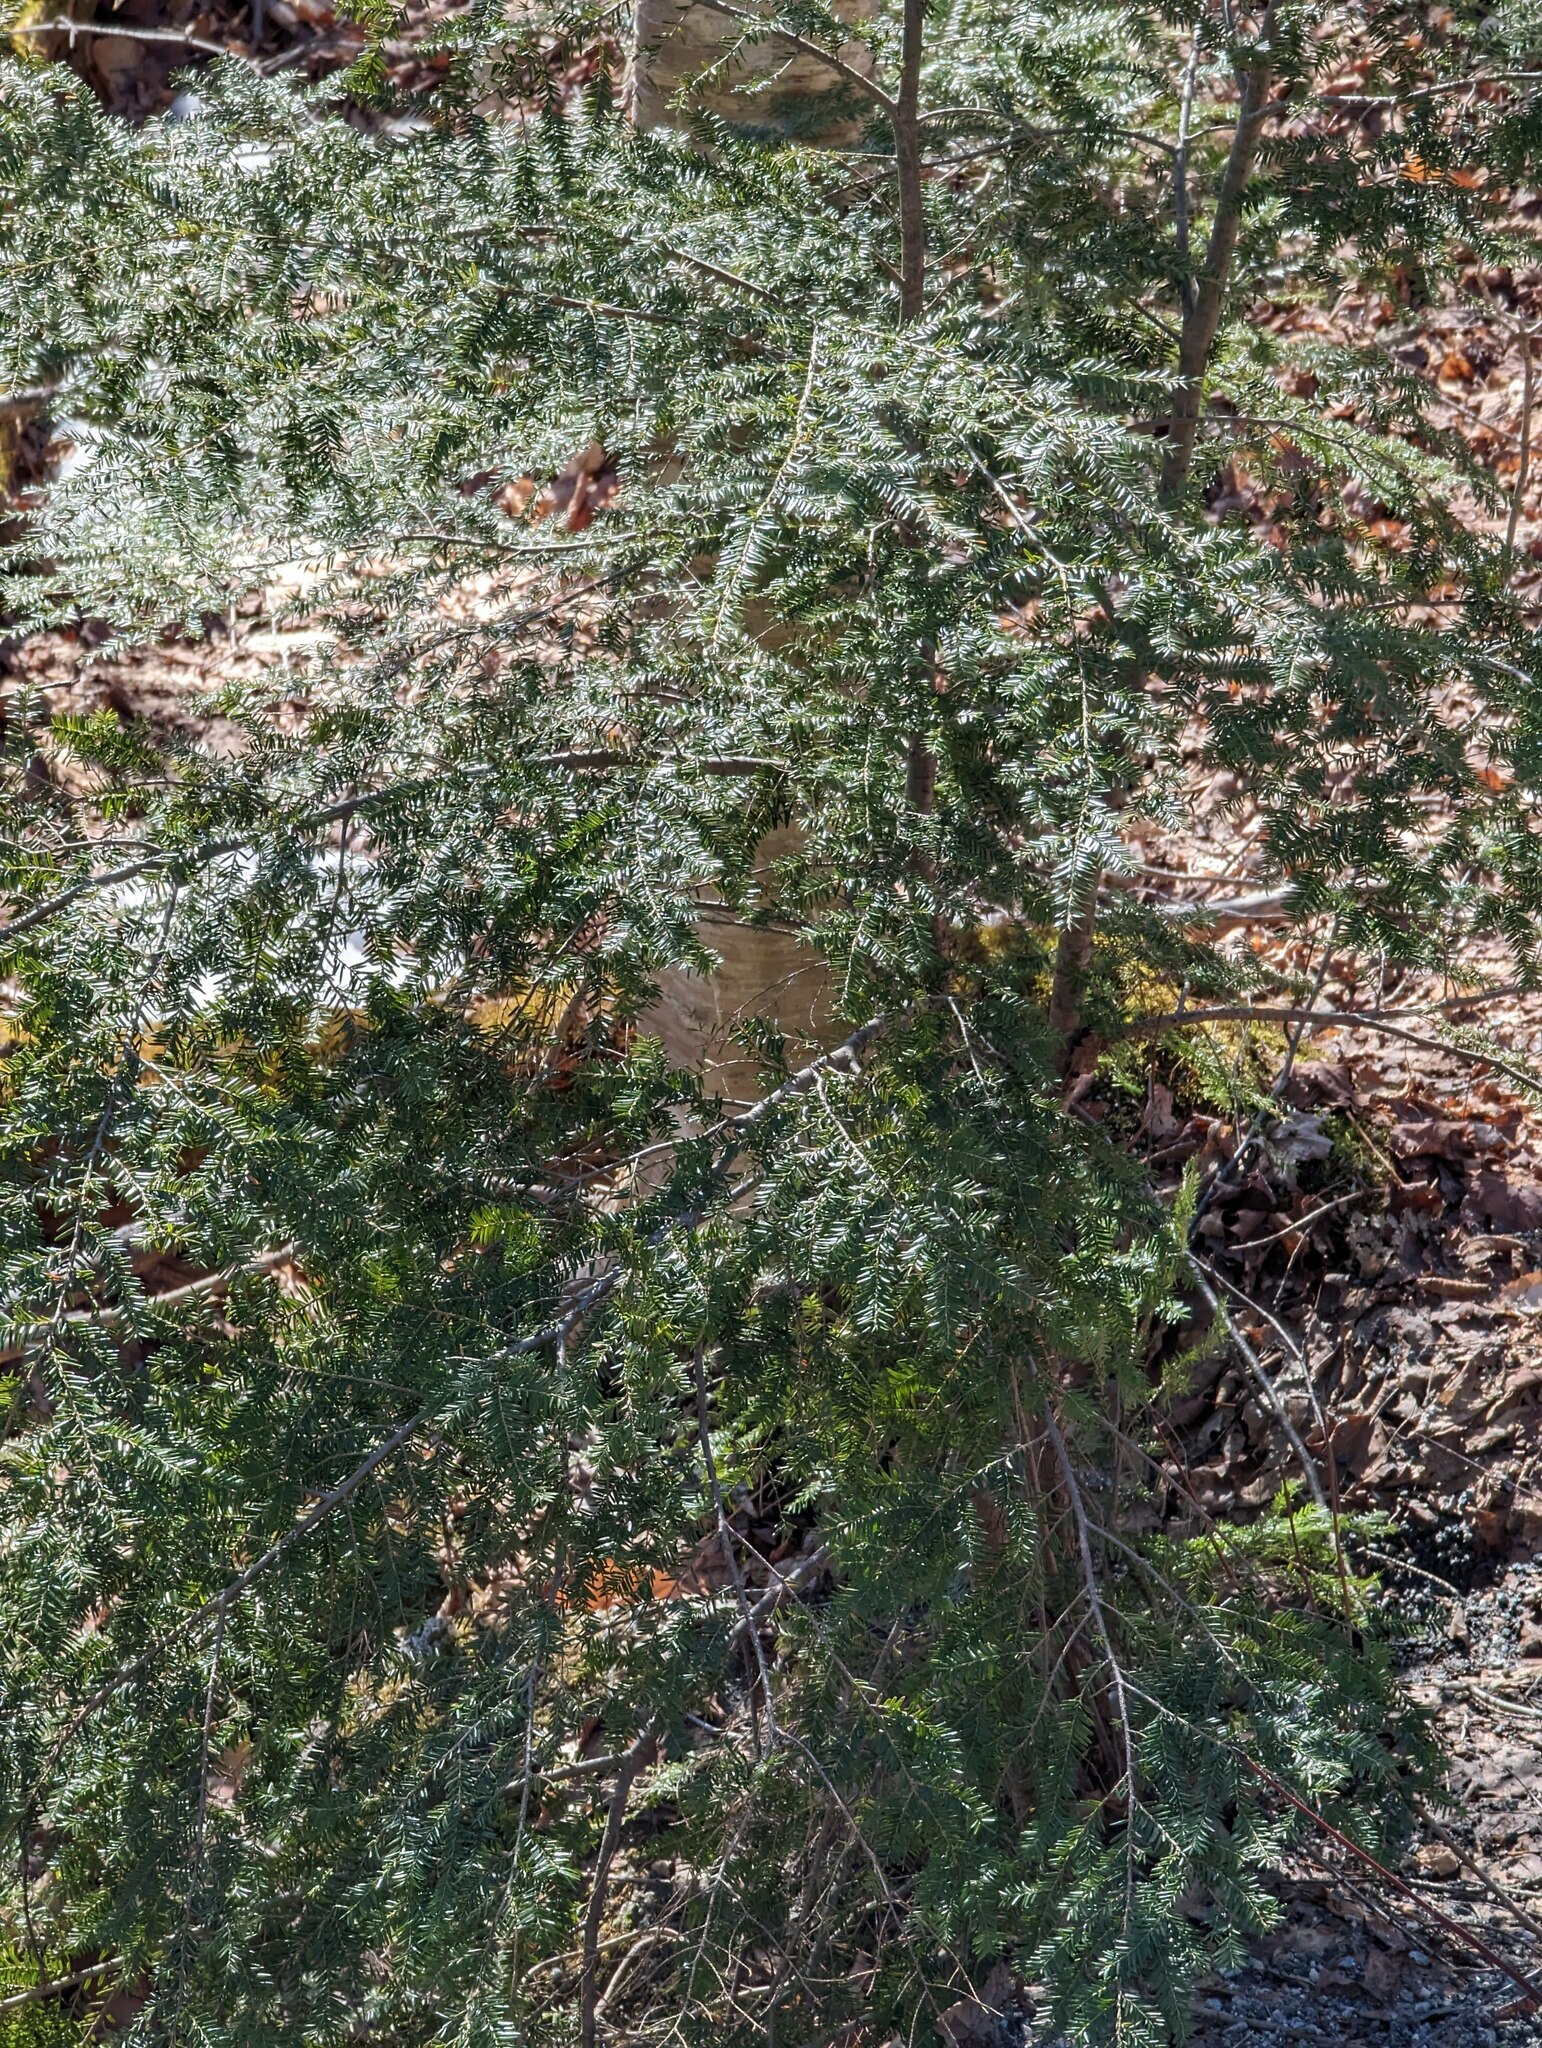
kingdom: Plantae
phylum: Tracheophyta
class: Pinopsida
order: Pinales
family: Pinaceae
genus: Tsuga
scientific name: Tsuga canadensis
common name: Eastern hemlock
